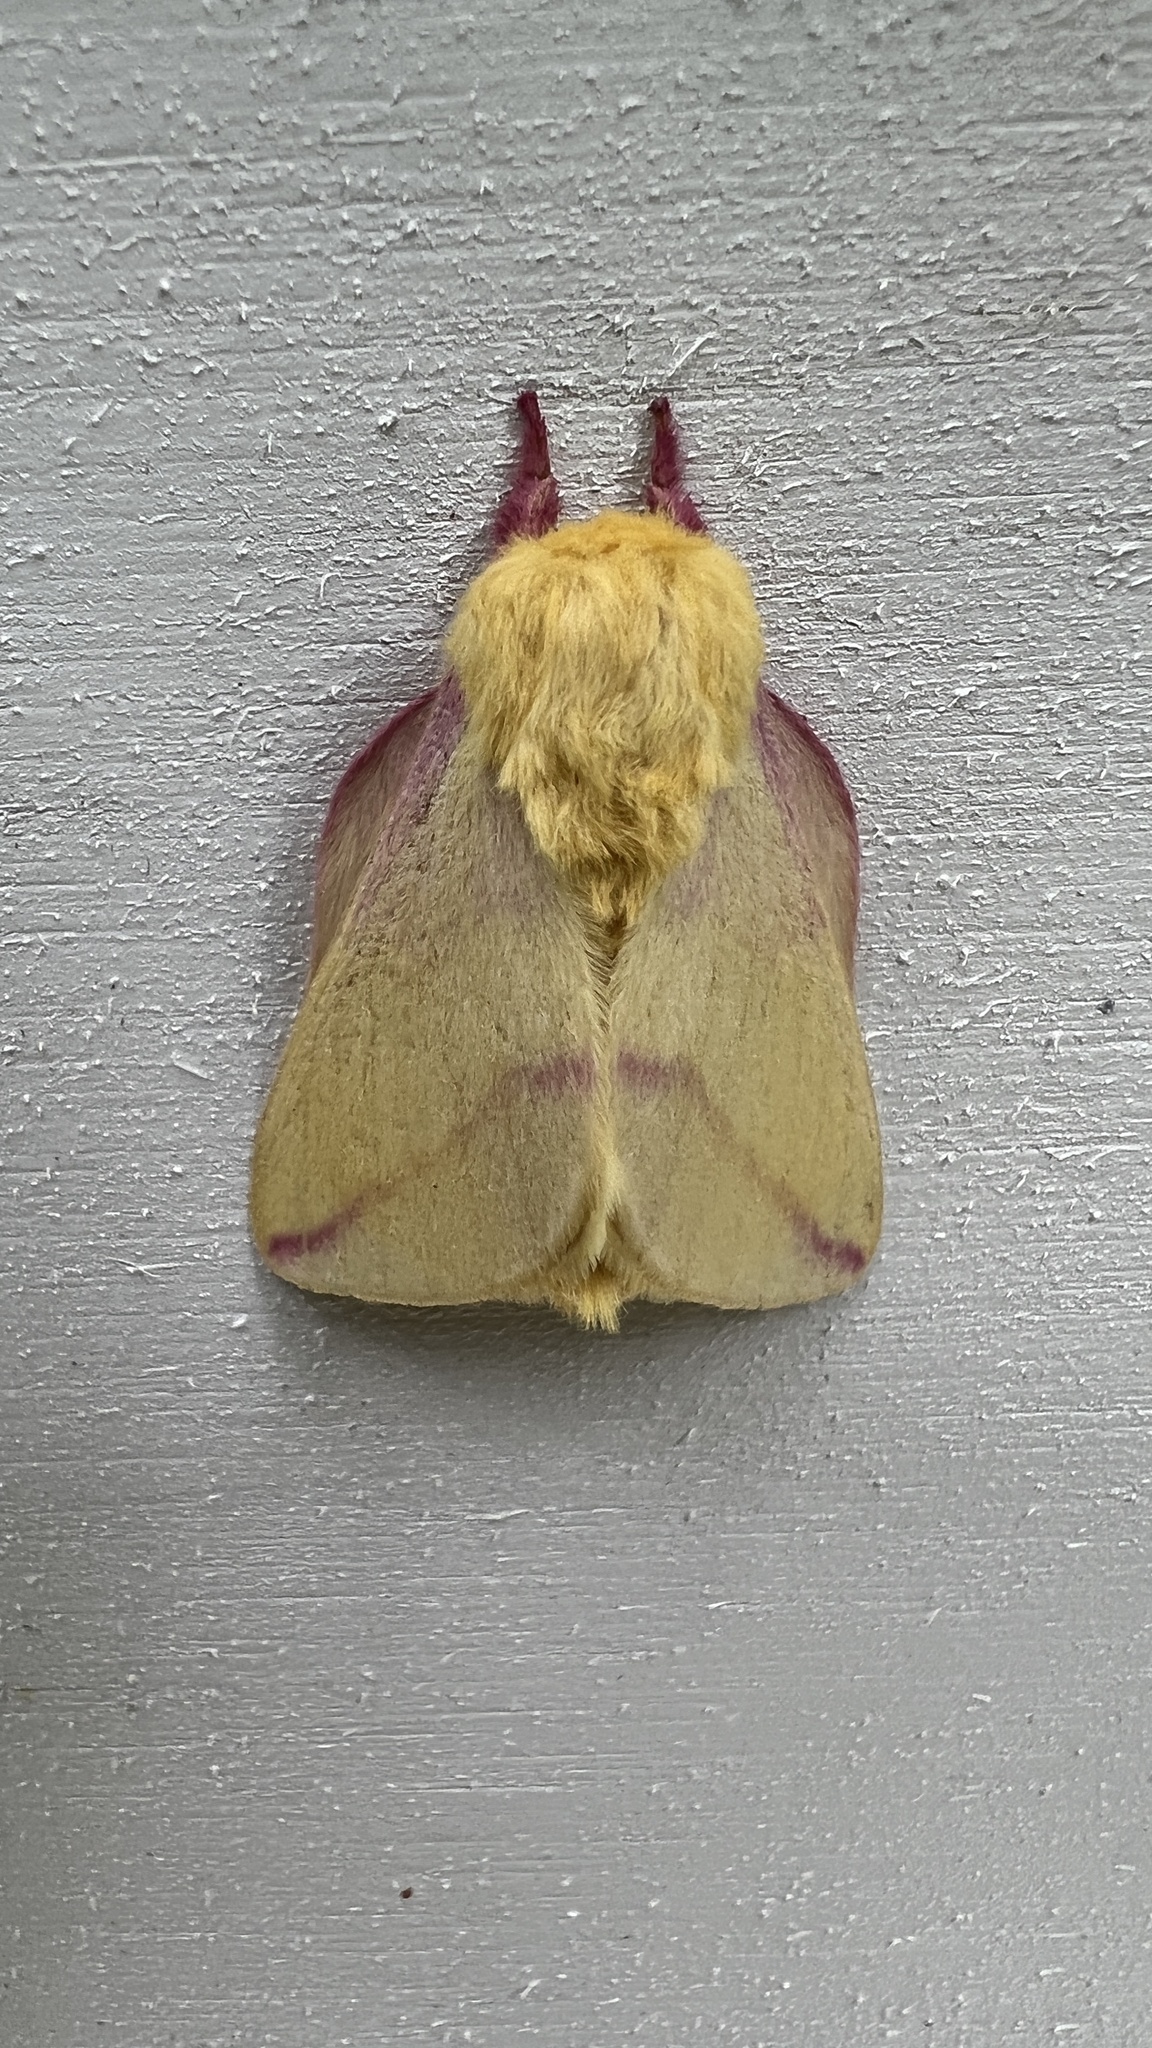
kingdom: Animalia
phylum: Arthropoda
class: Insecta
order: Lepidoptera
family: Saturniidae
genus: Dryocampa
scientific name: Dryocampa rubicunda
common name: Rosy maple moth
